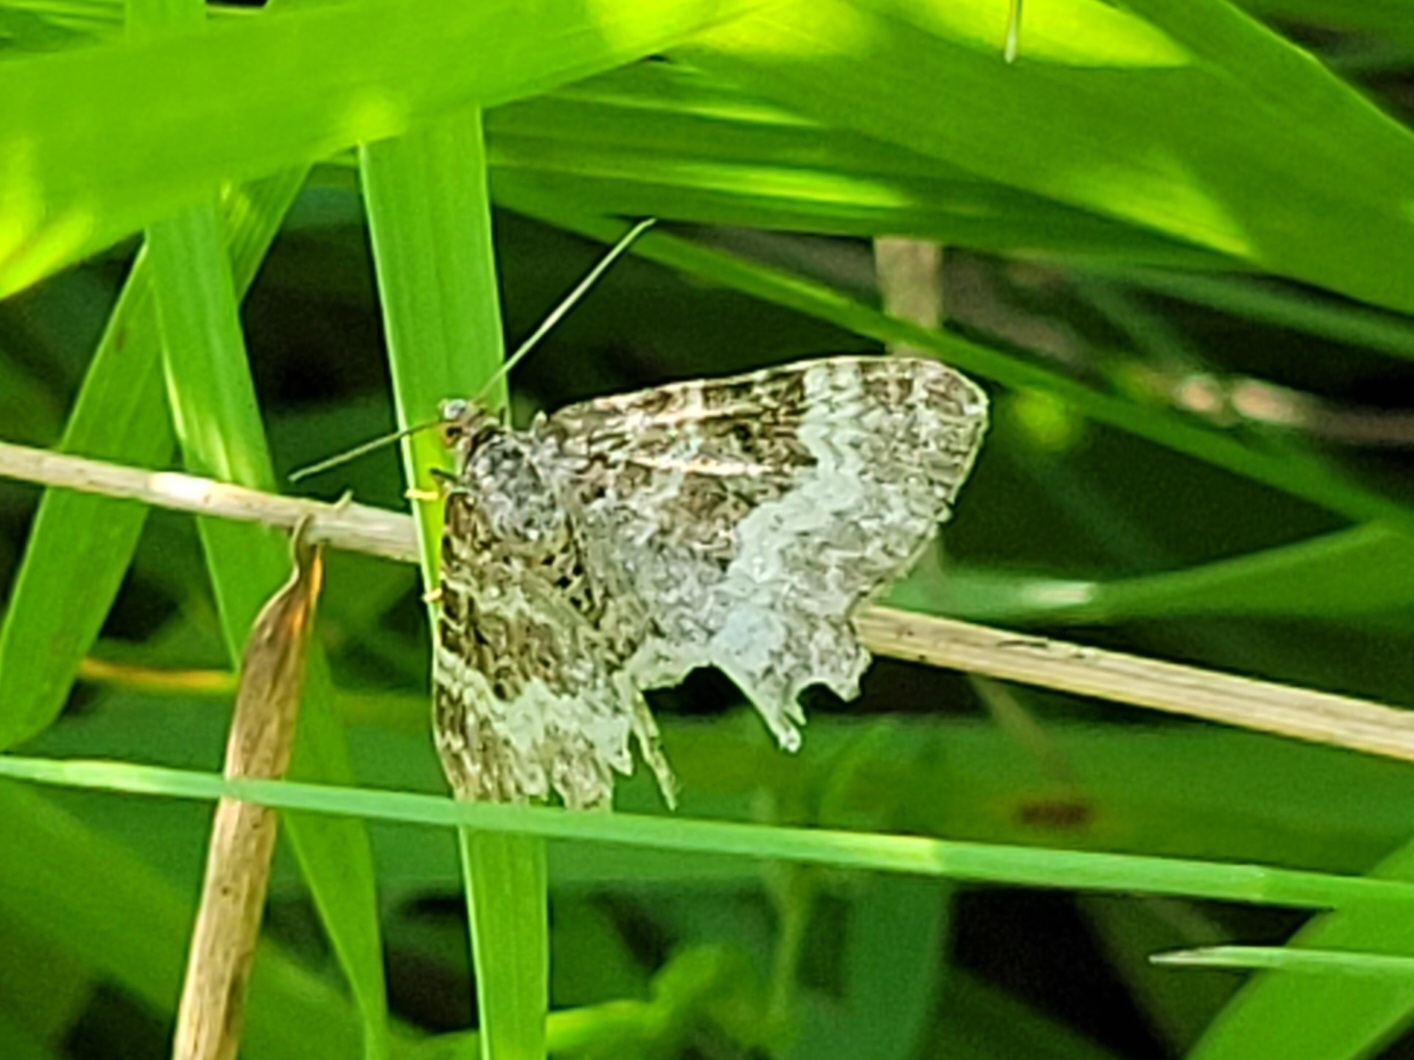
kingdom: Animalia
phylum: Arthropoda
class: Insecta
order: Lepidoptera
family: Geometridae
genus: Epirrhoe
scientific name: Epirrhoe alternata
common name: Common carpet
